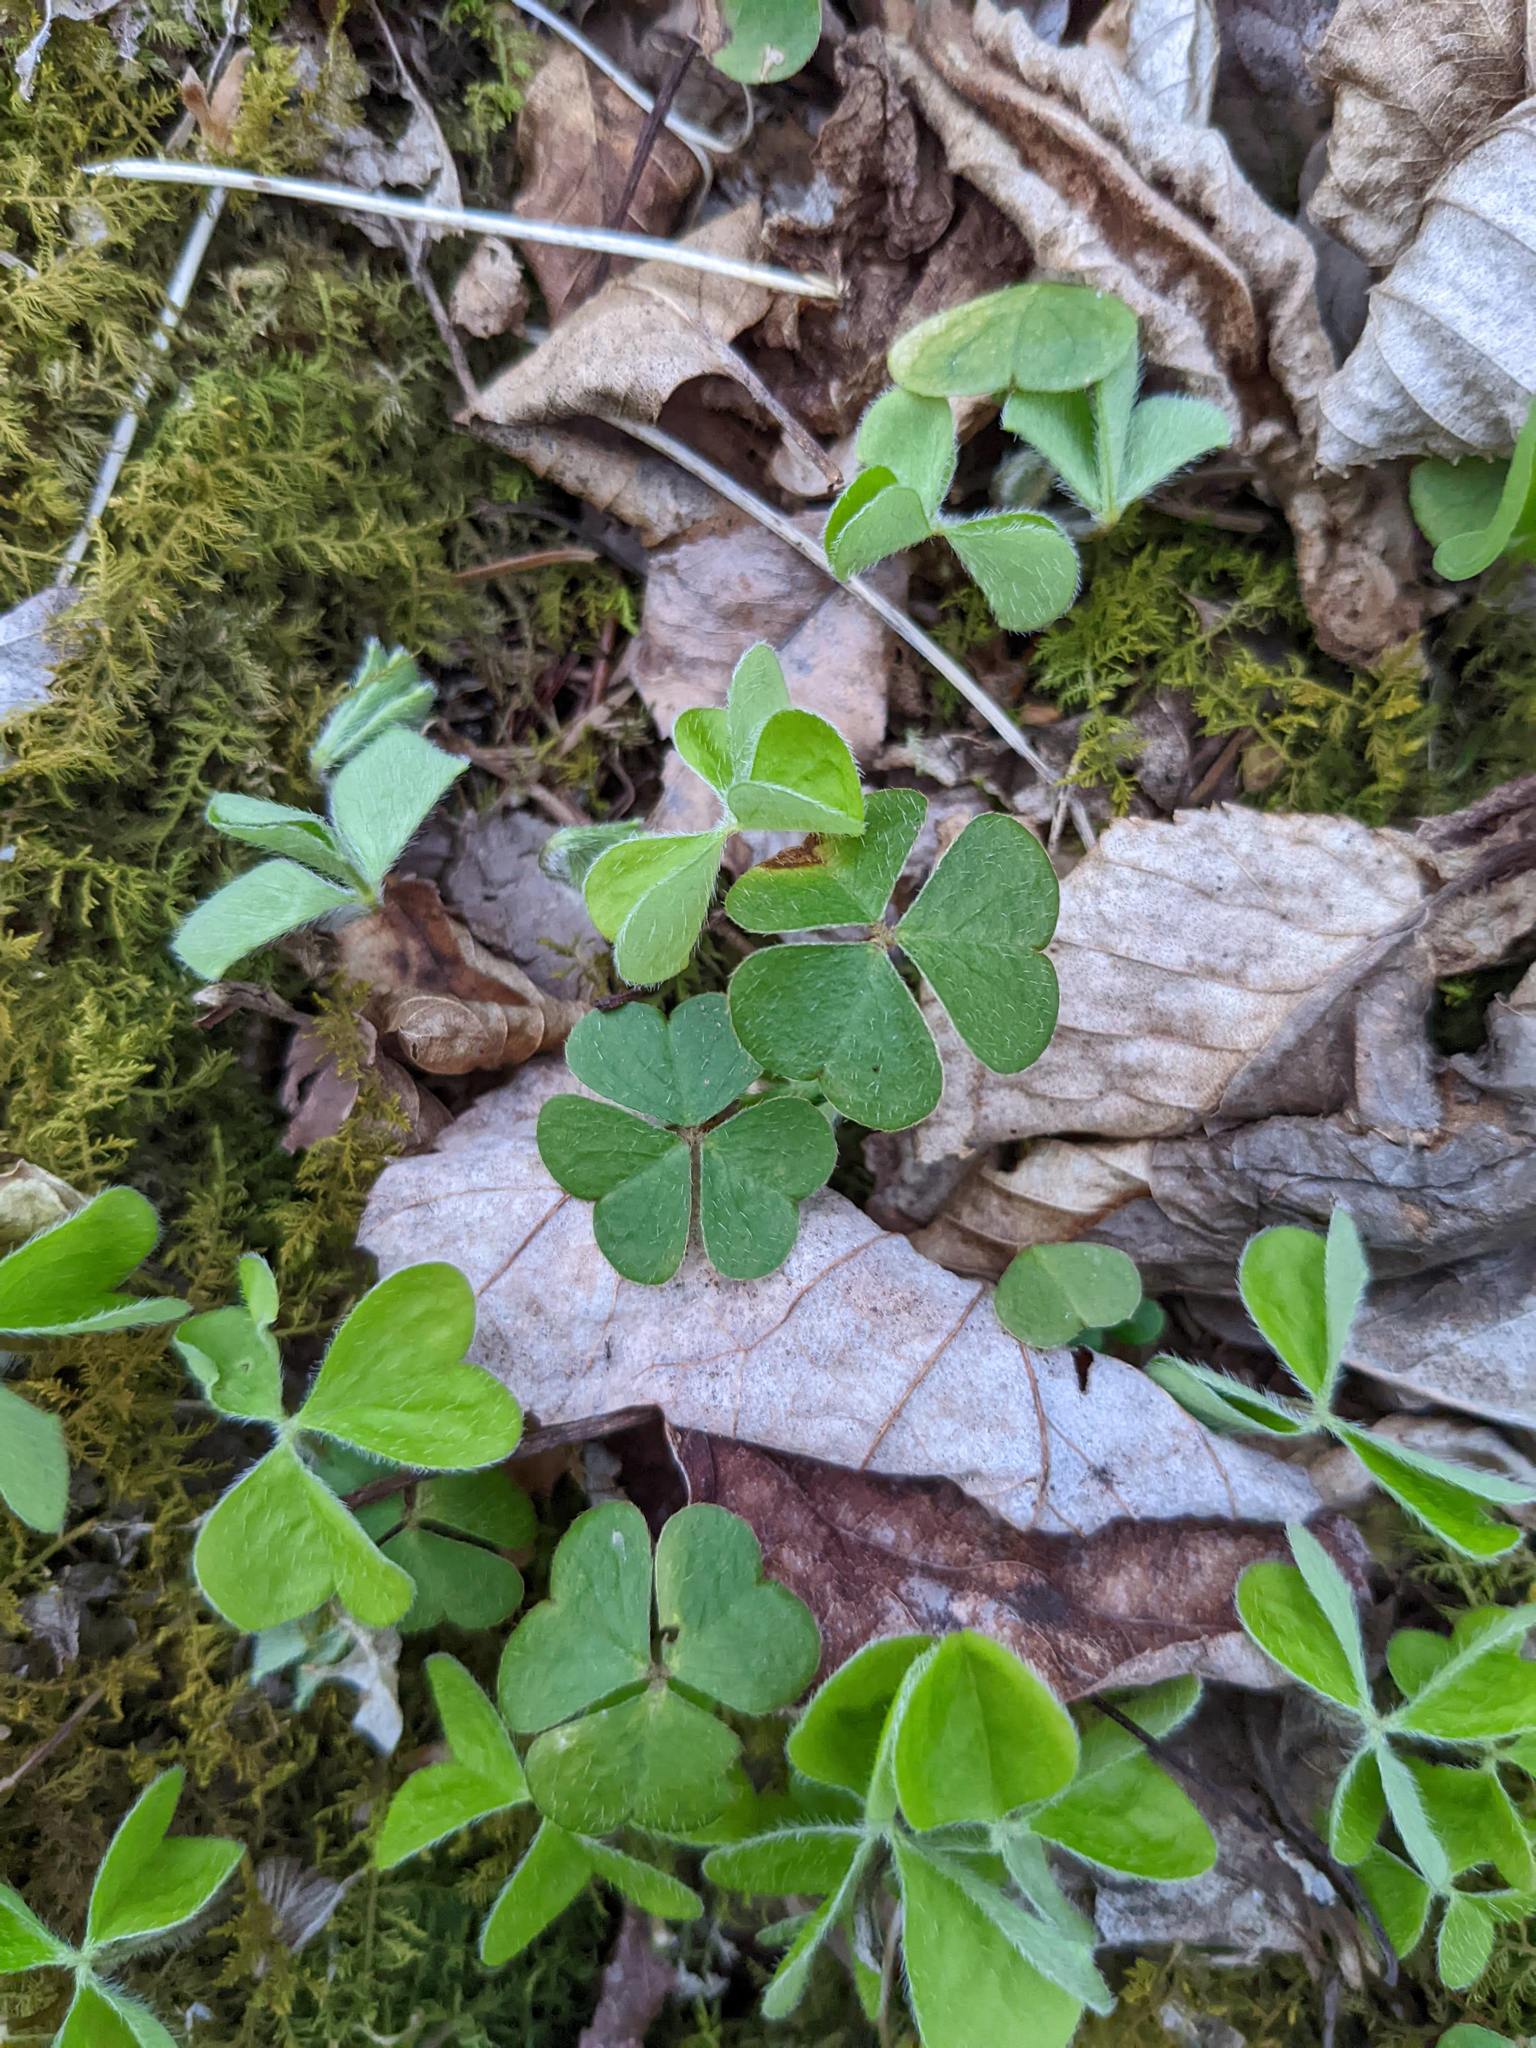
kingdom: Plantae
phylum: Tracheophyta
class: Magnoliopsida
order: Oxalidales
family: Oxalidaceae
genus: Oxalis
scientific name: Oxalis montana
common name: American wood-sorrel
